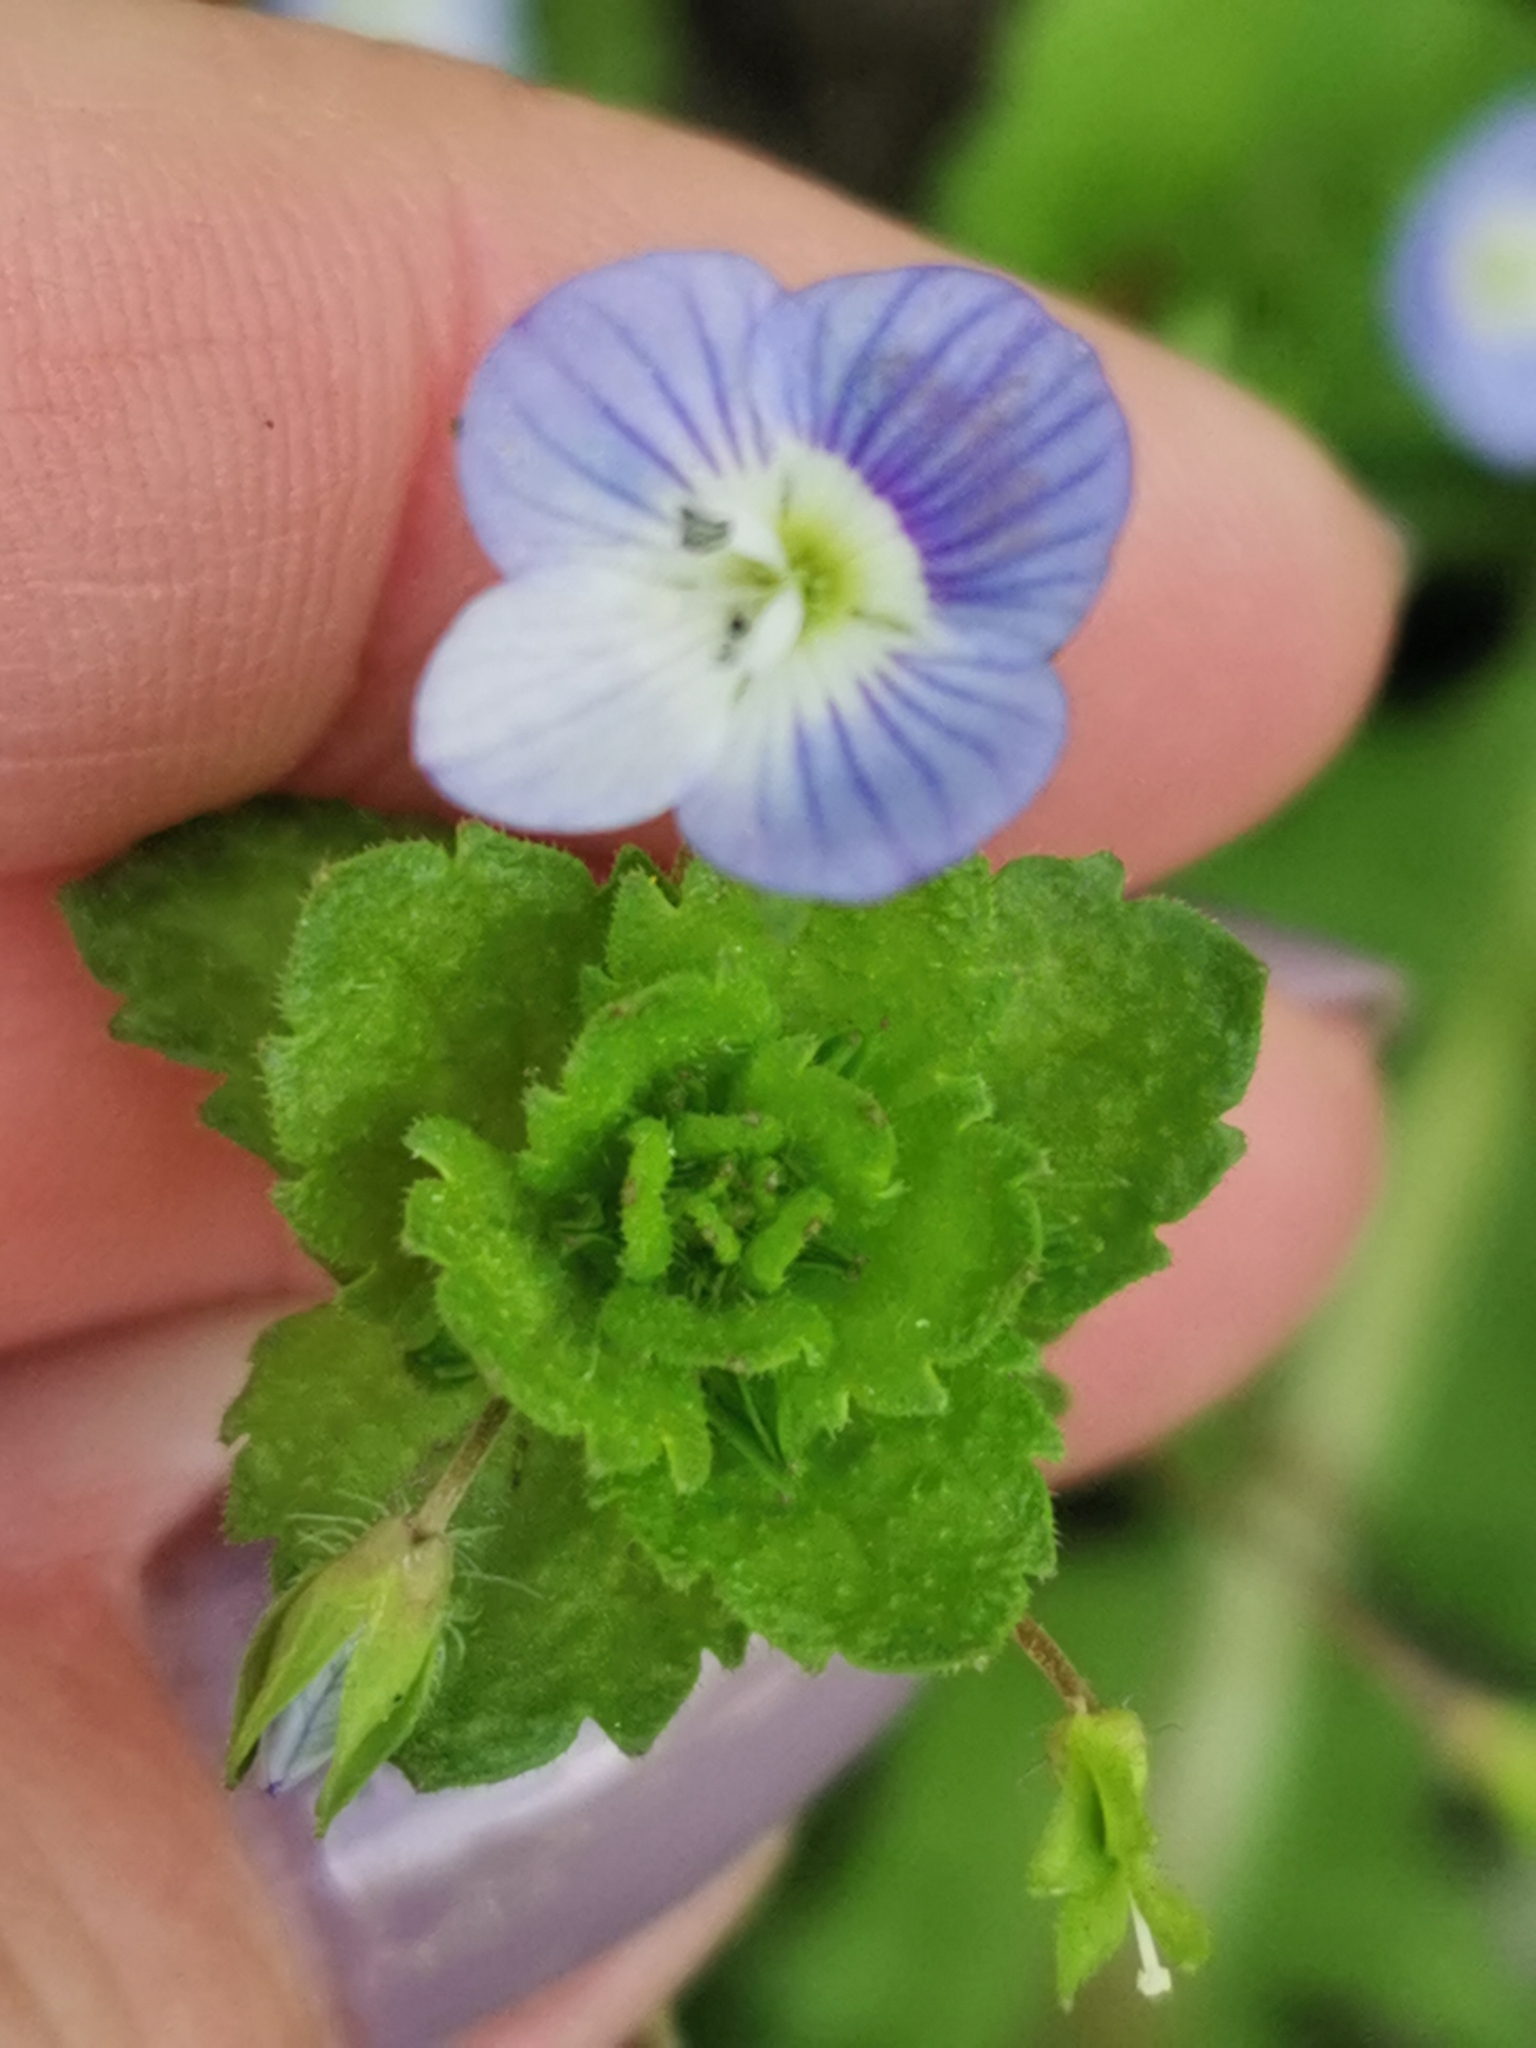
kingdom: Plantae
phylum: Tracheophyta
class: Magnoliopsida
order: Lamiales
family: Plantaginaceae
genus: Veronica
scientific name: Veronica persica
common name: Common field-speedwell
